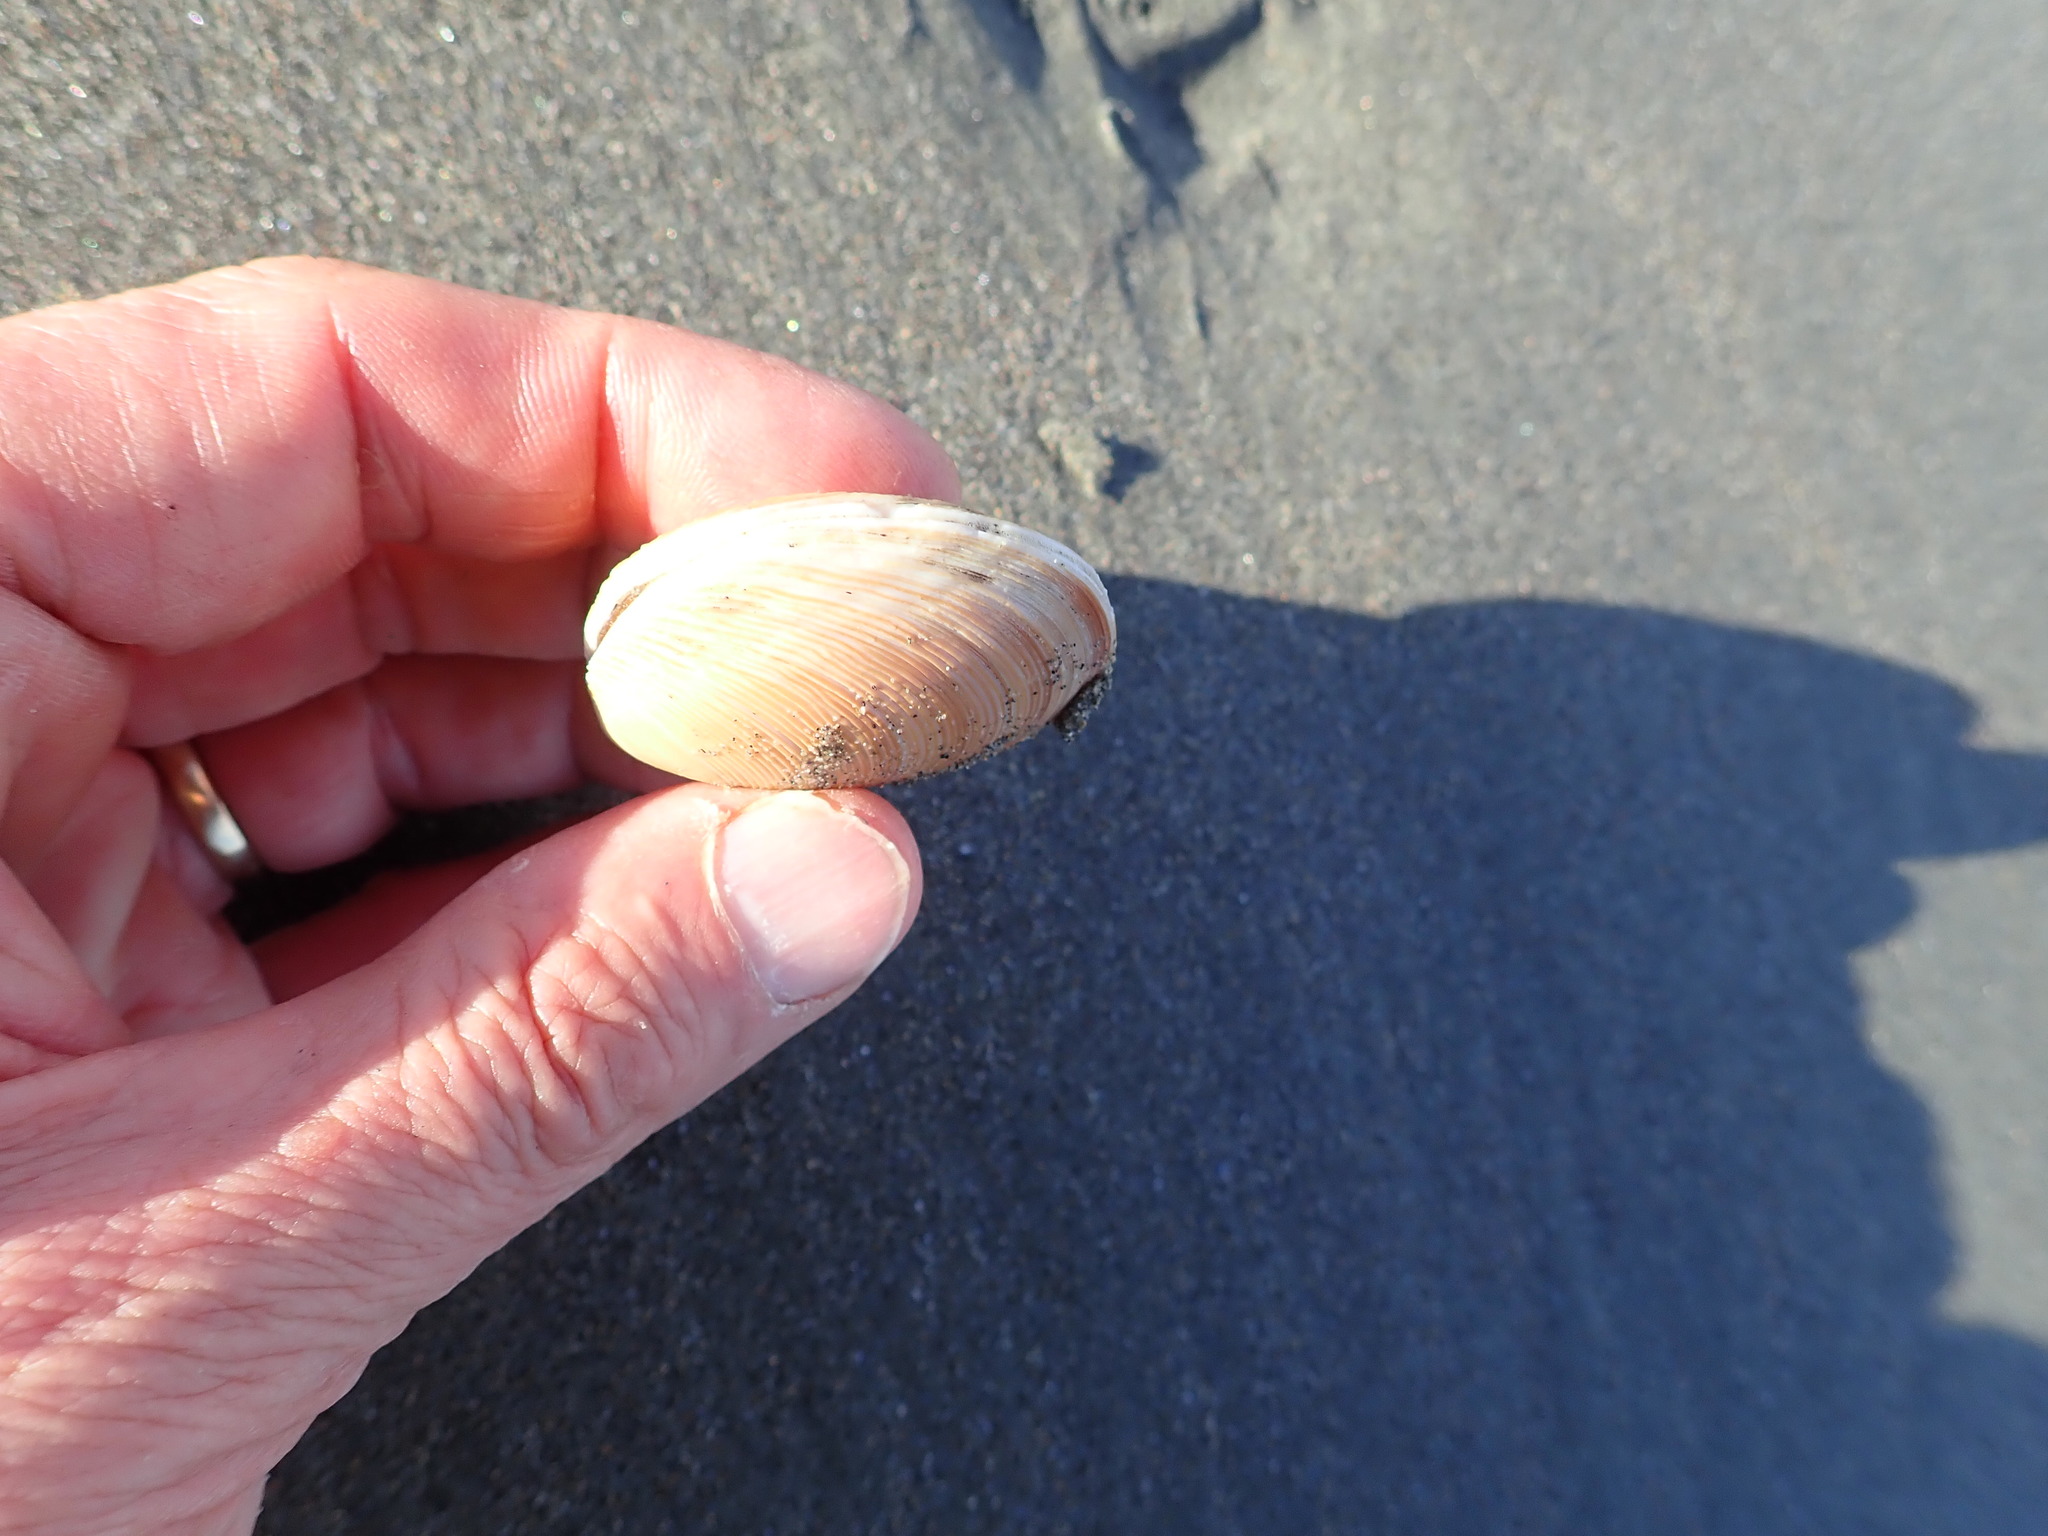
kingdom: Animalia
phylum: Mollusca
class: Bivalvia
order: Venerida
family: Veneridae
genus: Dosinia
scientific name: Dosinia anus
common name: Old-woman dosinia
